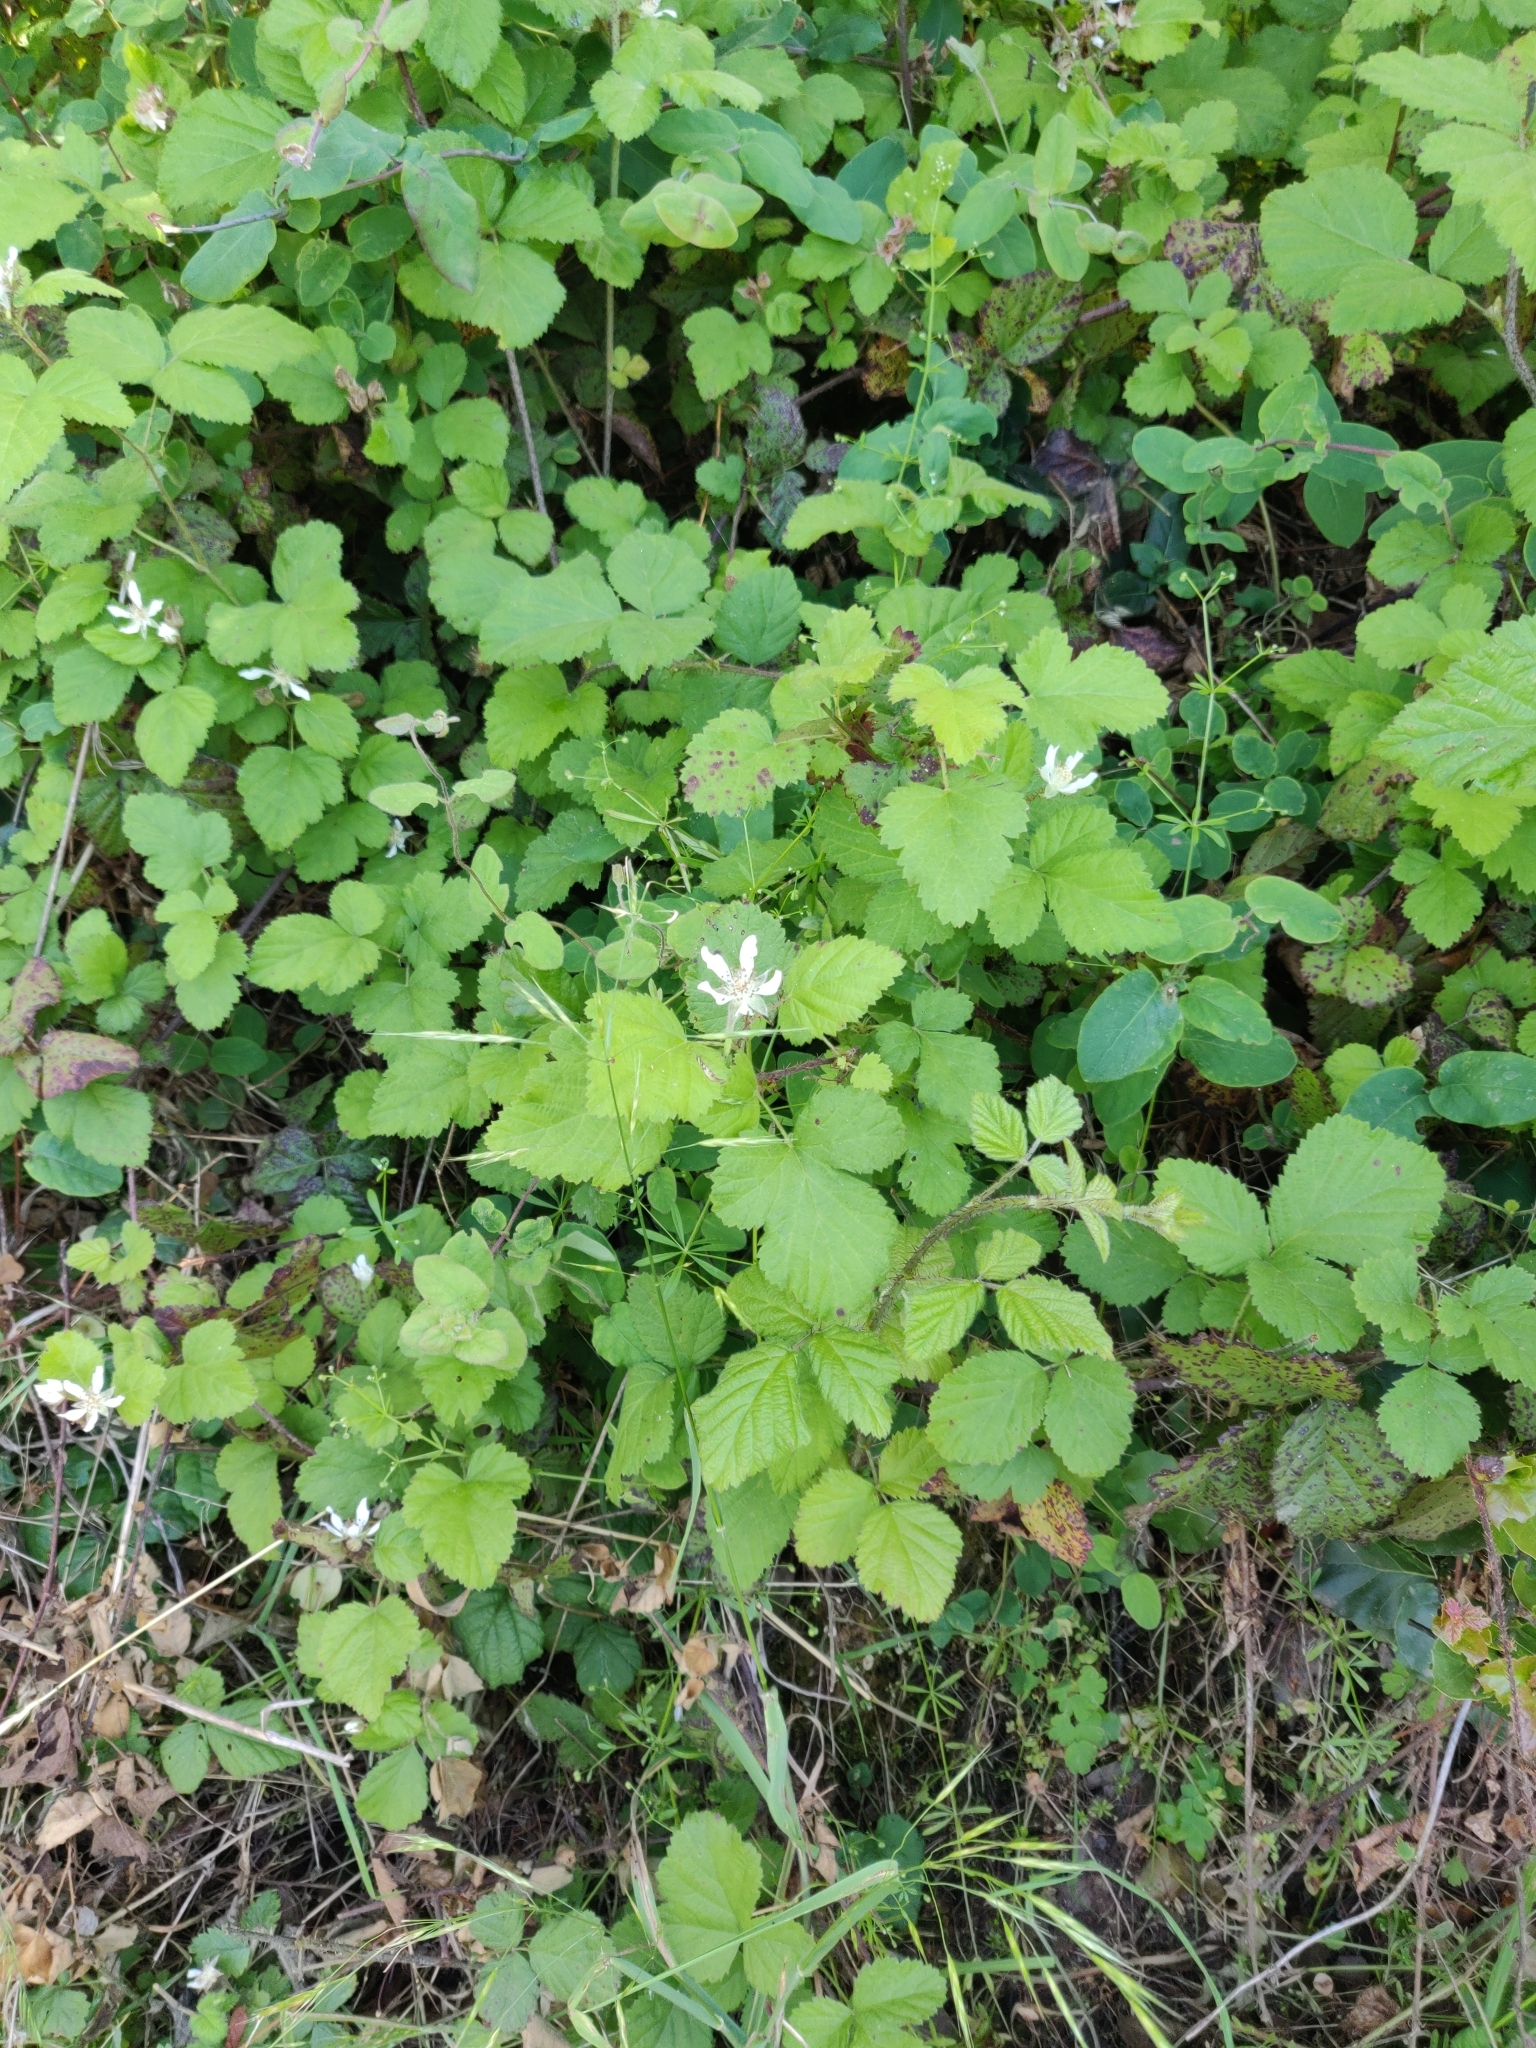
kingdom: Plantae
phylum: Tracheophyta
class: Magnoliopsida
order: Rosales
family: Rosaceae
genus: Rubus
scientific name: Rubus ursinus
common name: Pacific blackberry
